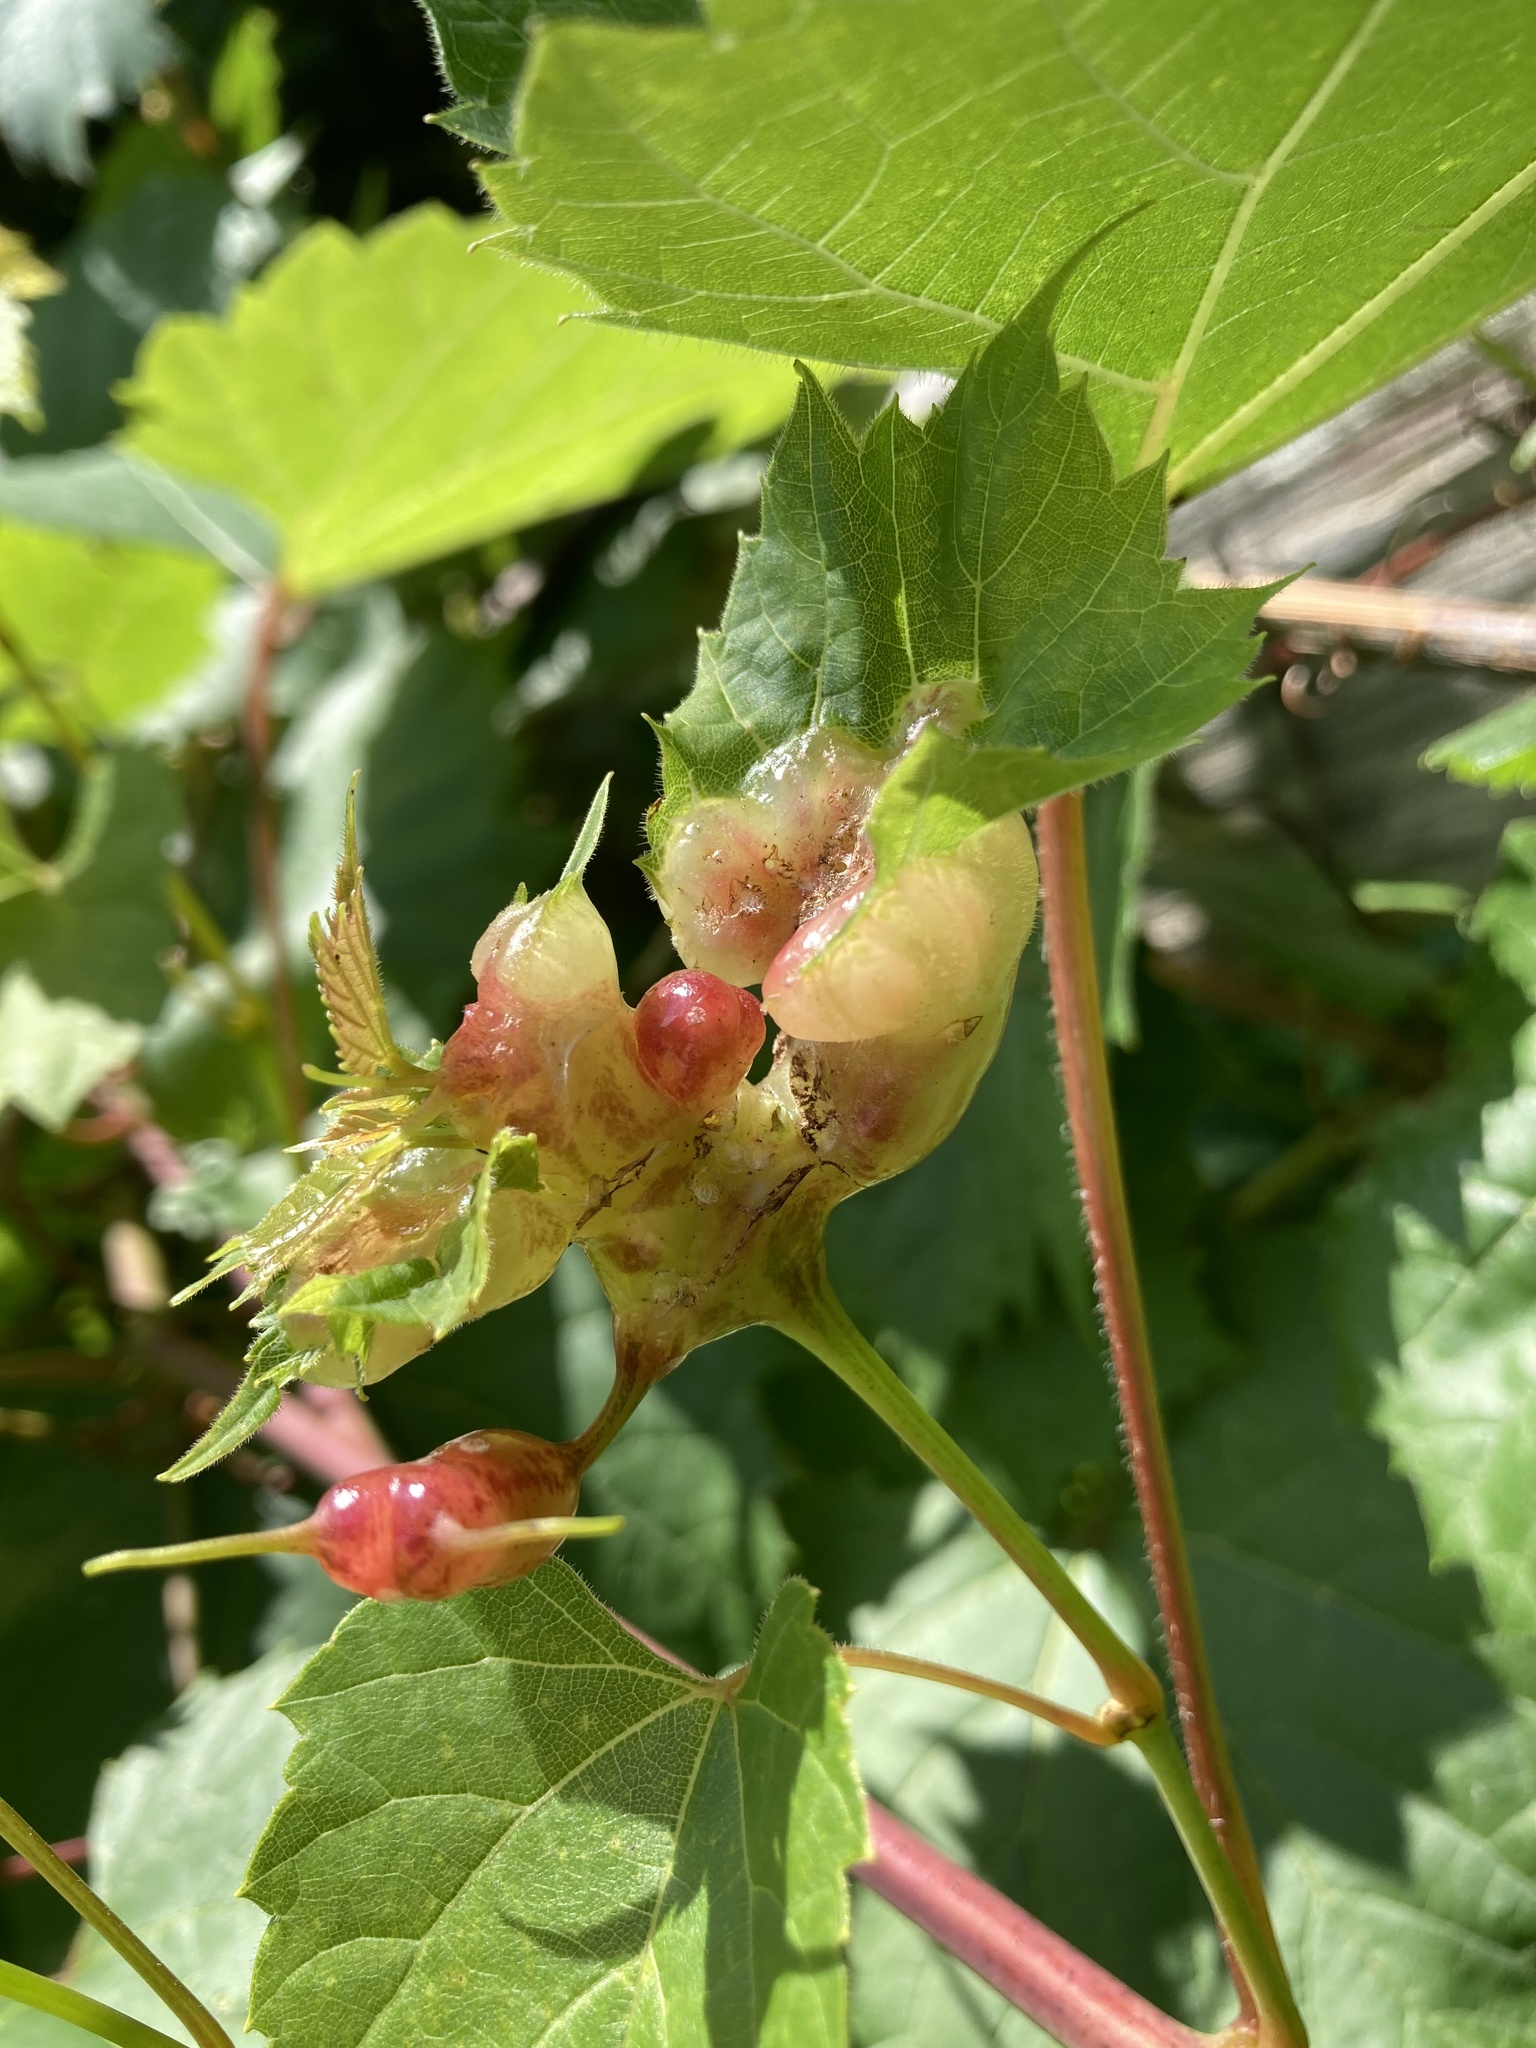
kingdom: Animalia
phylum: Arthropoda
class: Insecta
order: Diptera
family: Cecidomyiidae
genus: Vitisiella
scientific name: Vitisiella brevicauda
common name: Grape tumid gallmaker midge
